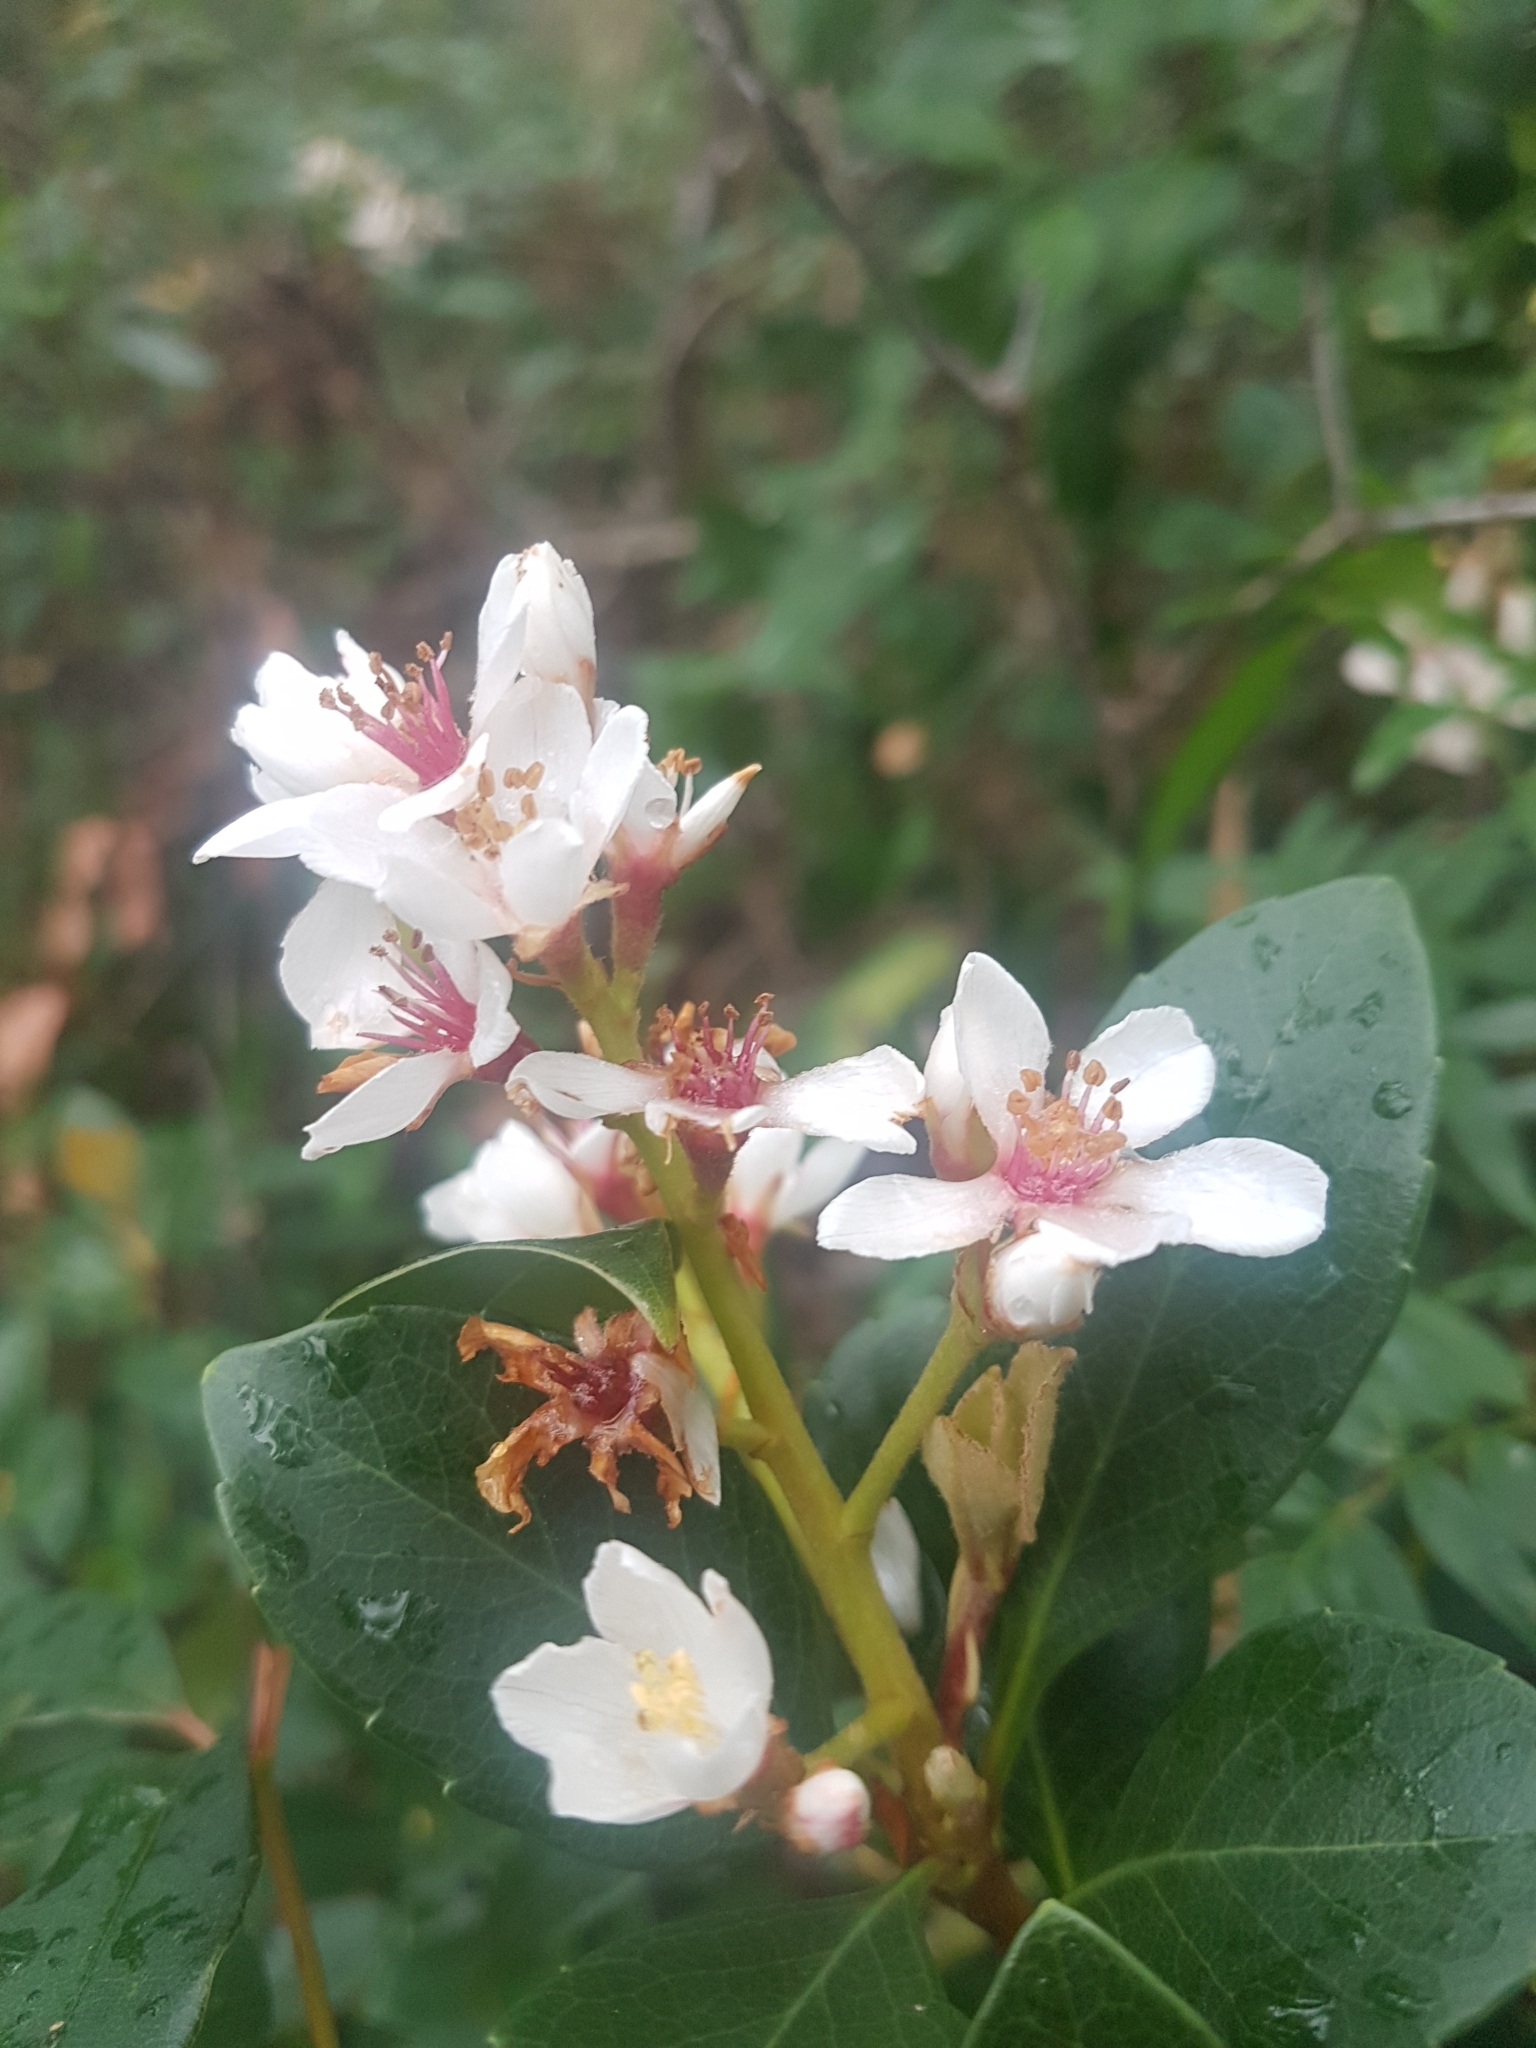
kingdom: Plantae
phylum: Tracheophyta
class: Magnoliopsida
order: Rosales
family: Rosaceae
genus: Rhaphiolepis
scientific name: Rhaphiolepis indica
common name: India-hawthorn
